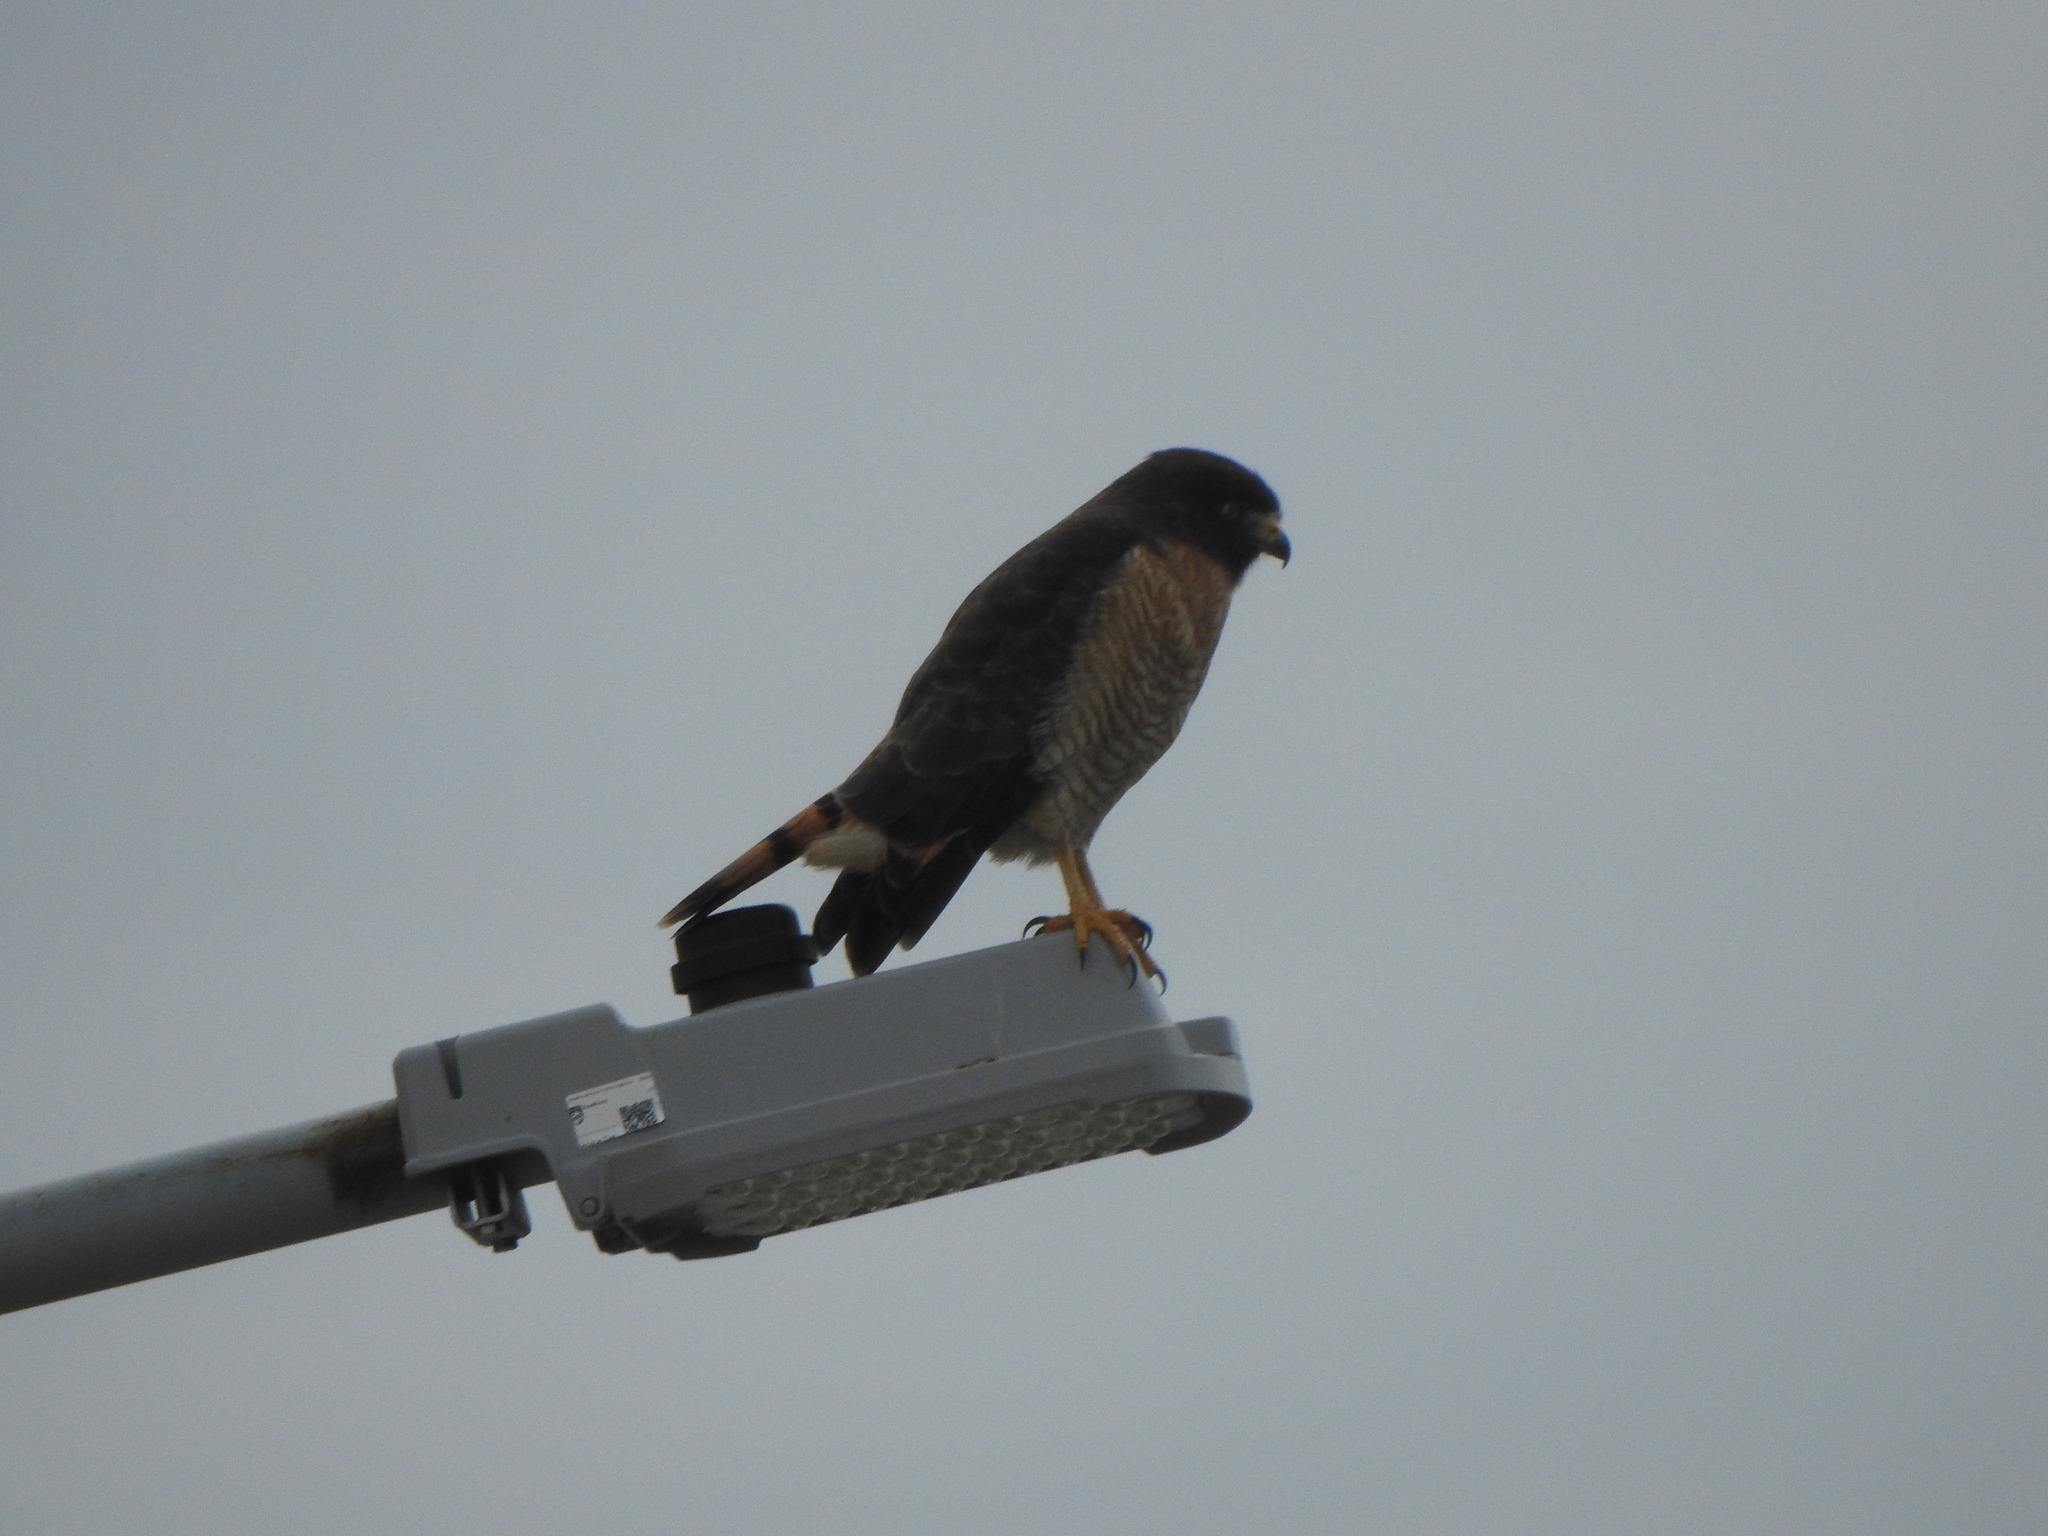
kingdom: Animalia
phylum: Chordata
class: Aves
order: Accipitriformes
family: Accipitridae
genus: Rupornis
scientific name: Rupornis magnirostris
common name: Roadside hawk
